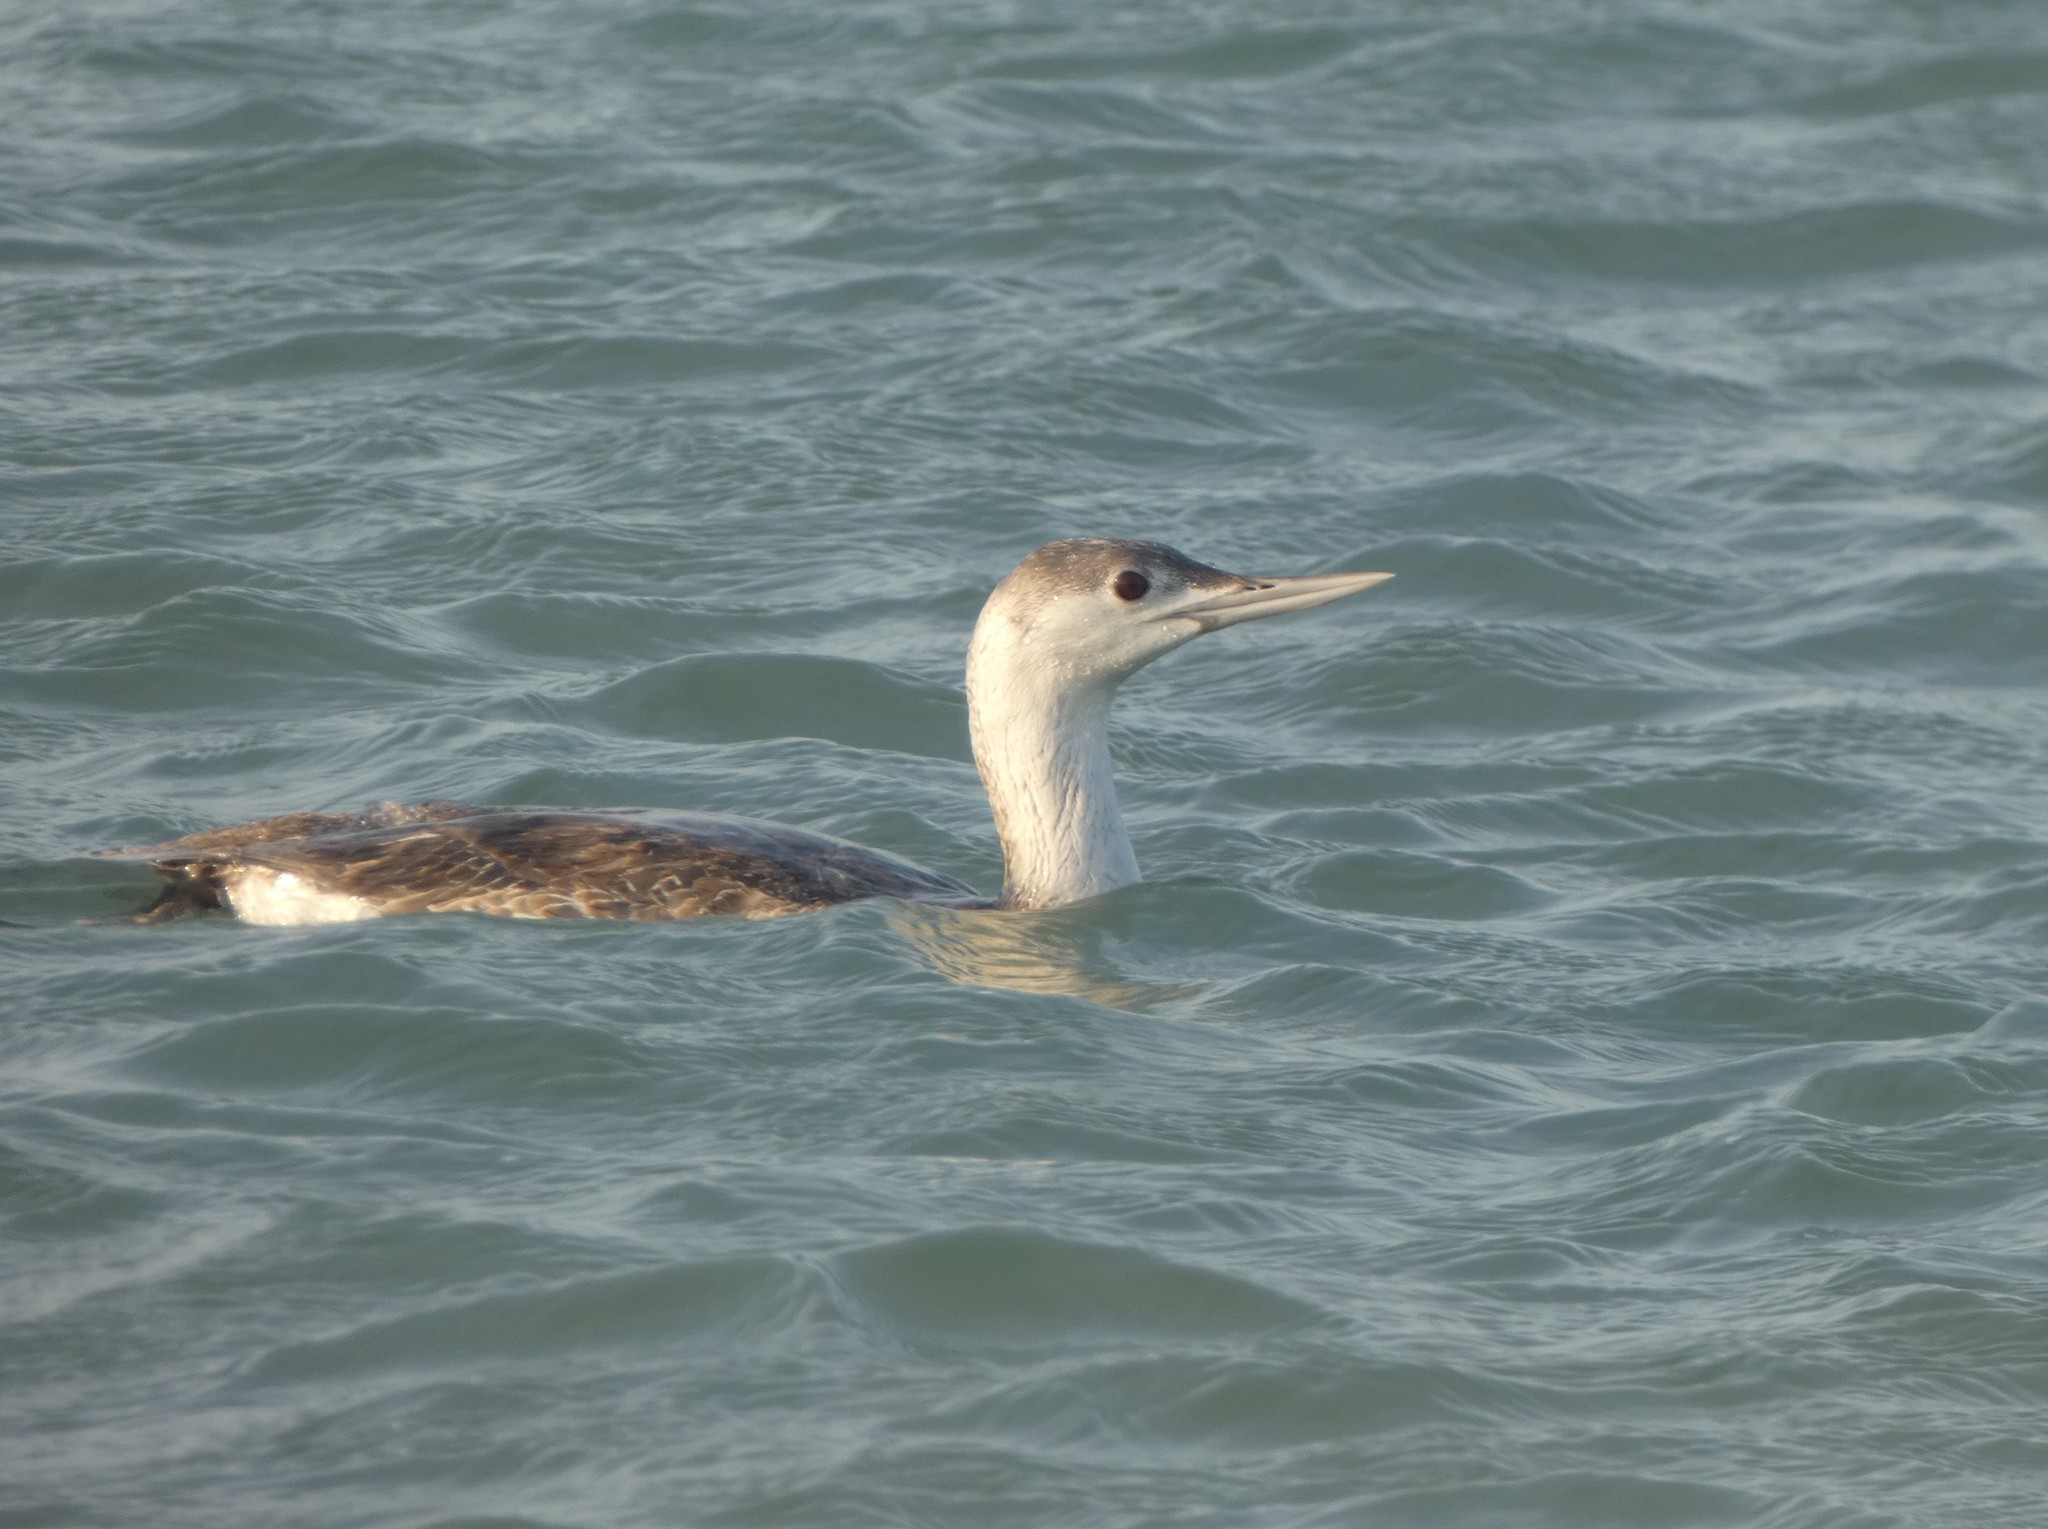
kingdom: Animalia
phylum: Chordata
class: Aves
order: Gaviiformes
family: Gaviidae
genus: Gavia
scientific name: Gavia stellata
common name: Red-throated loon
